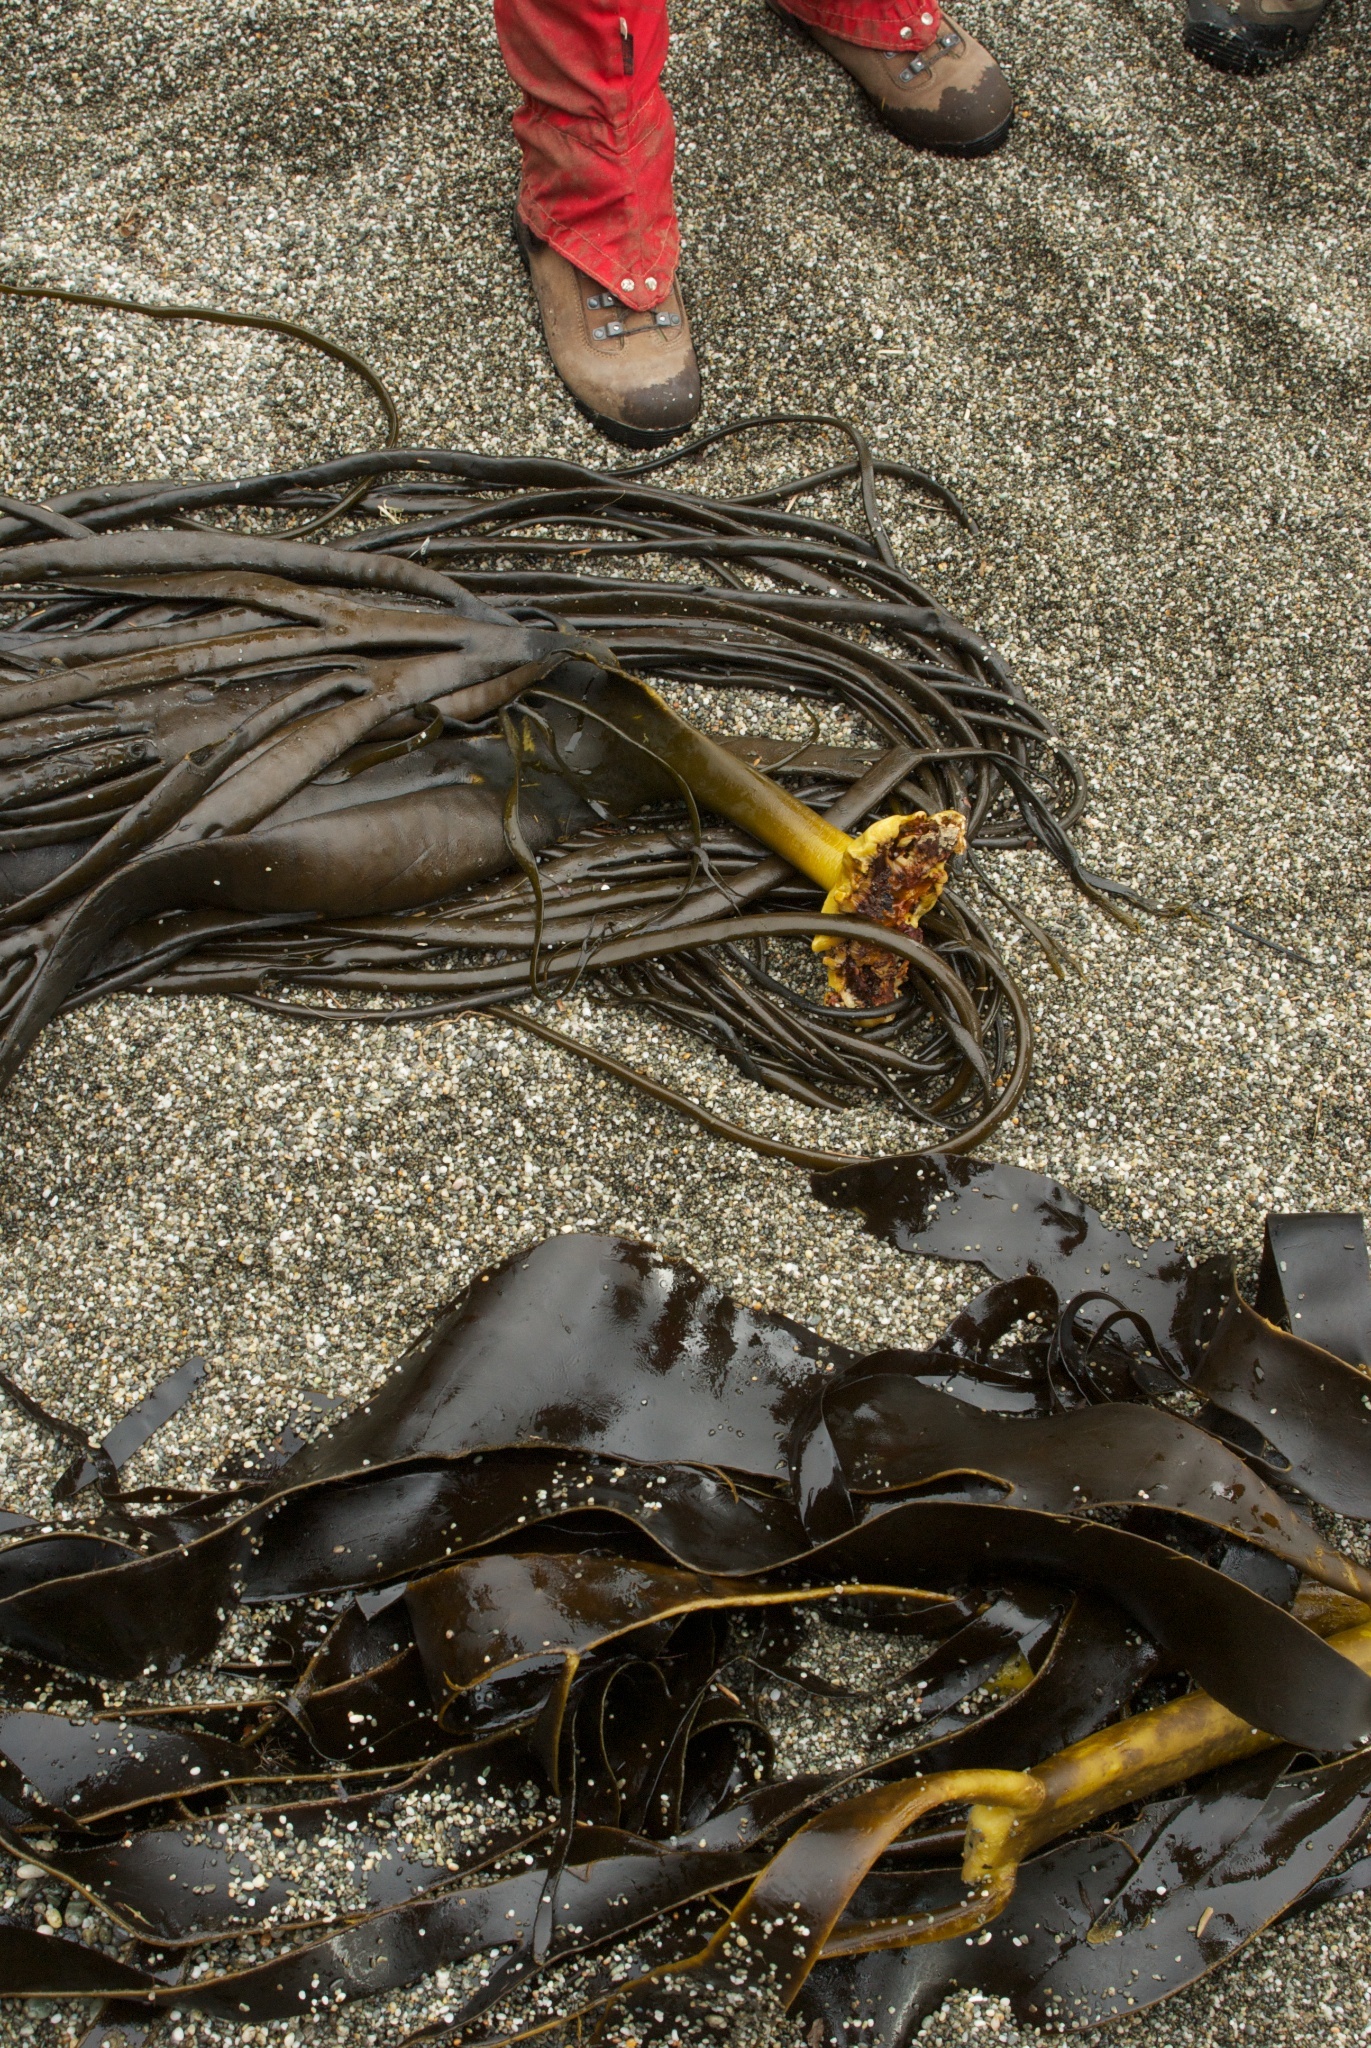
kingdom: Chromista
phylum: Ochrophyta
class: Phaeophyceae
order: Fucales
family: Durvillaeaceae
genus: Durvillaea
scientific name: Durvillaea antarctica
